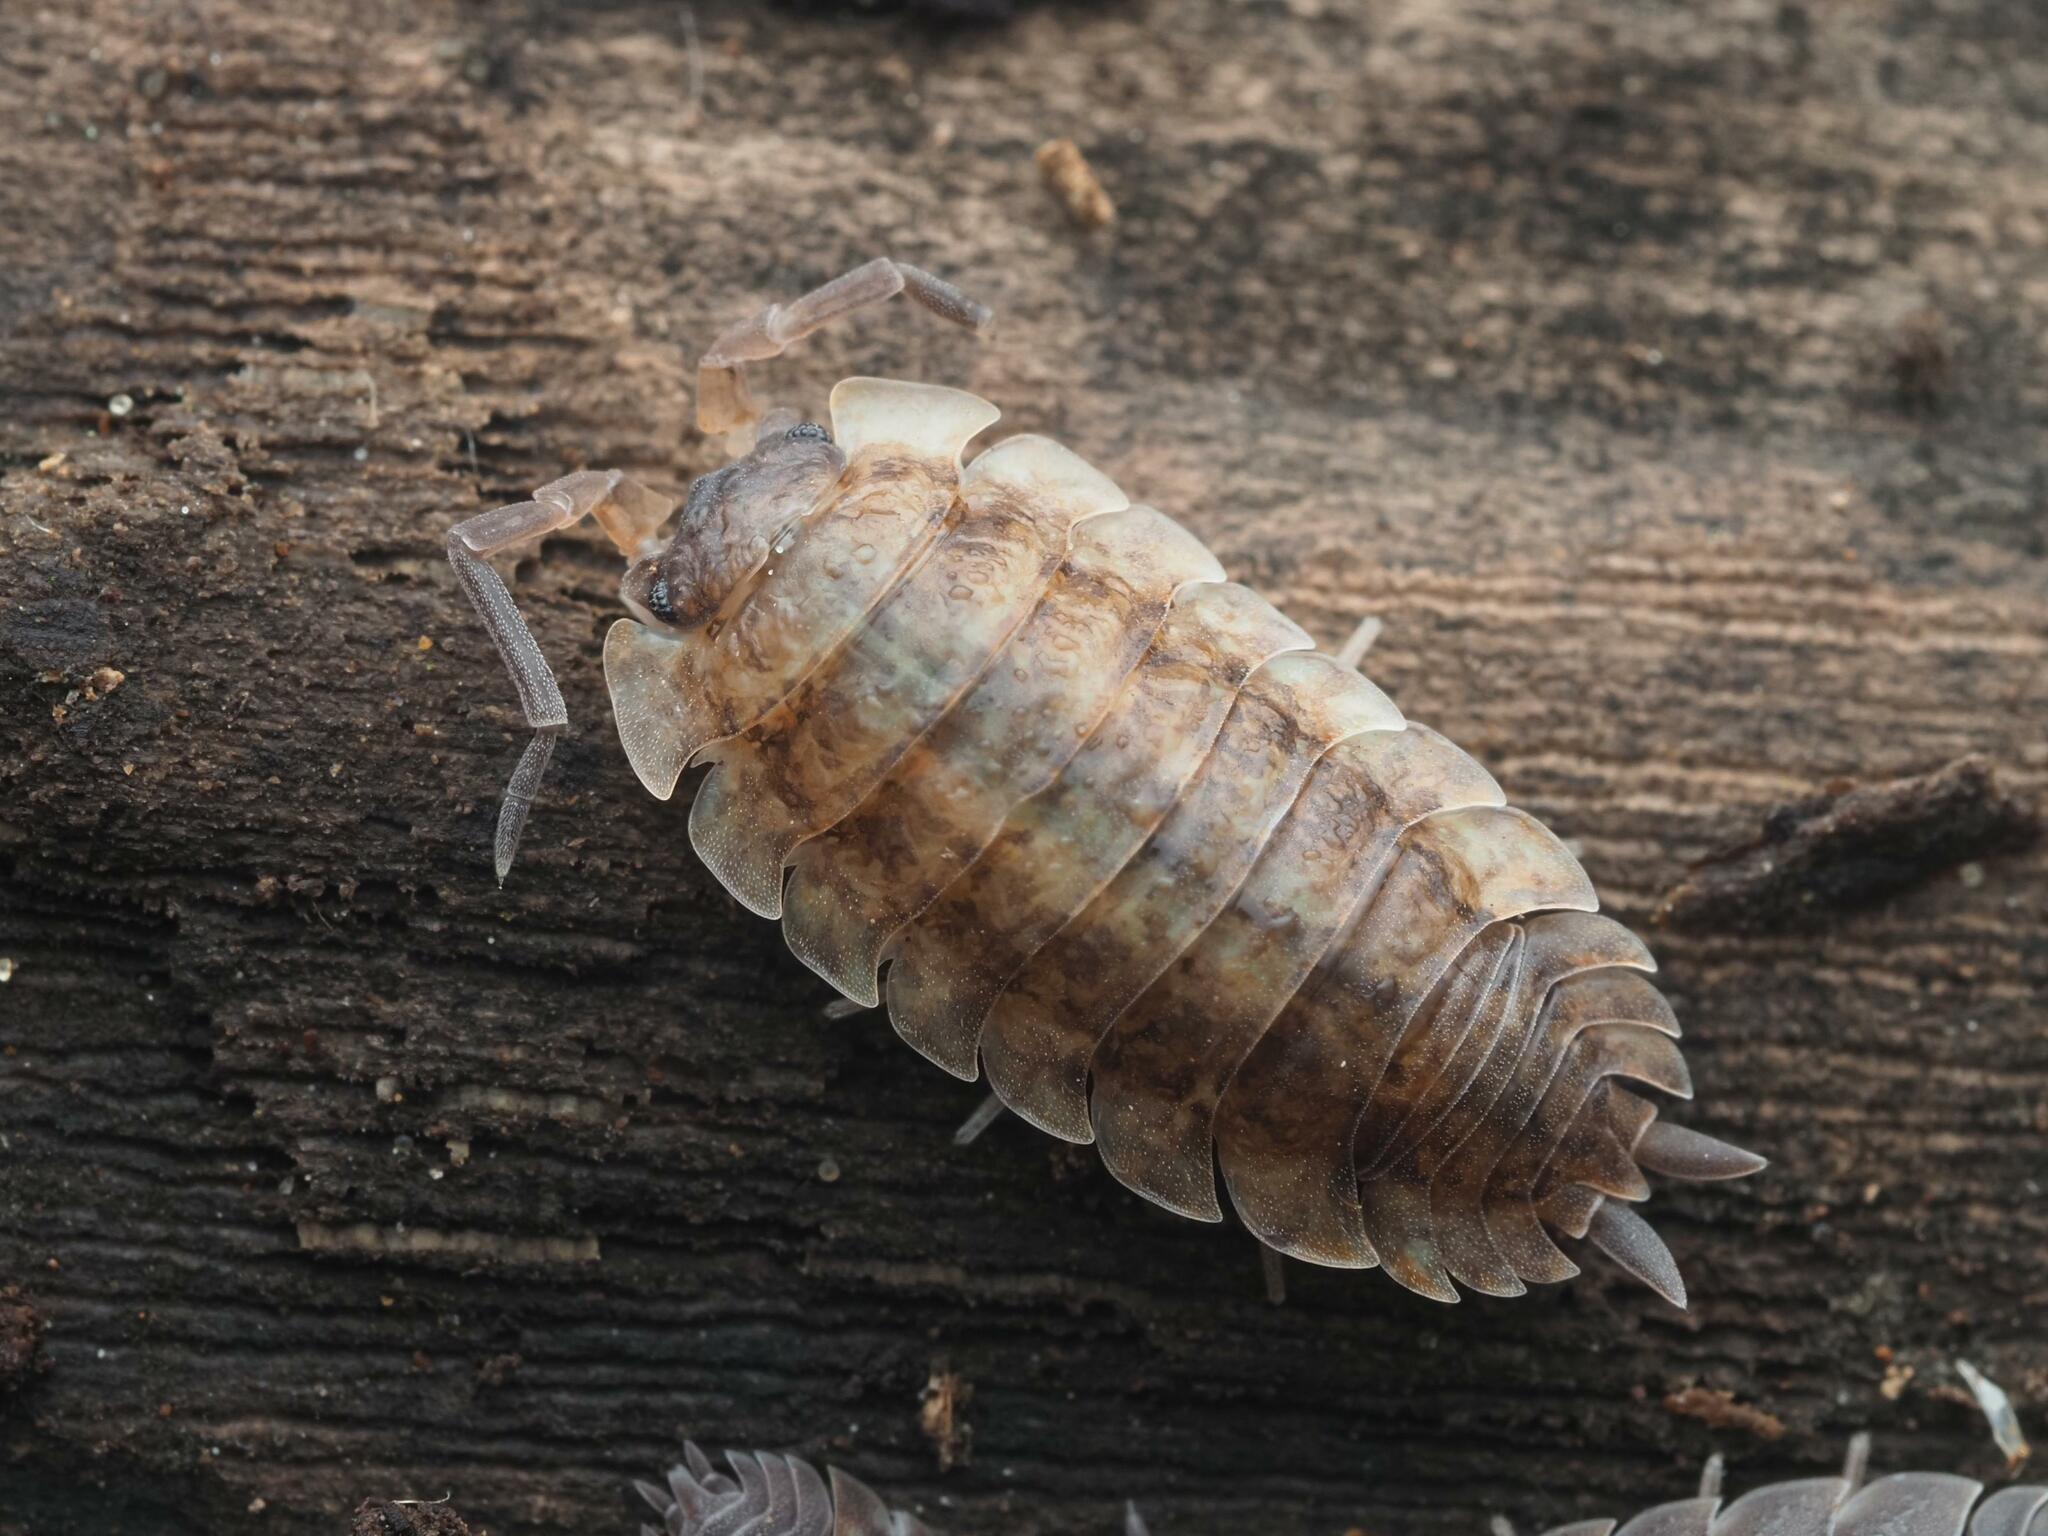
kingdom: Animalia
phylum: Arthropoda
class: Malacostraca
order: Isopoda
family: Porcellionidae
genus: Porcellio
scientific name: Porcellio scaber
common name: Common rough woodlouse
